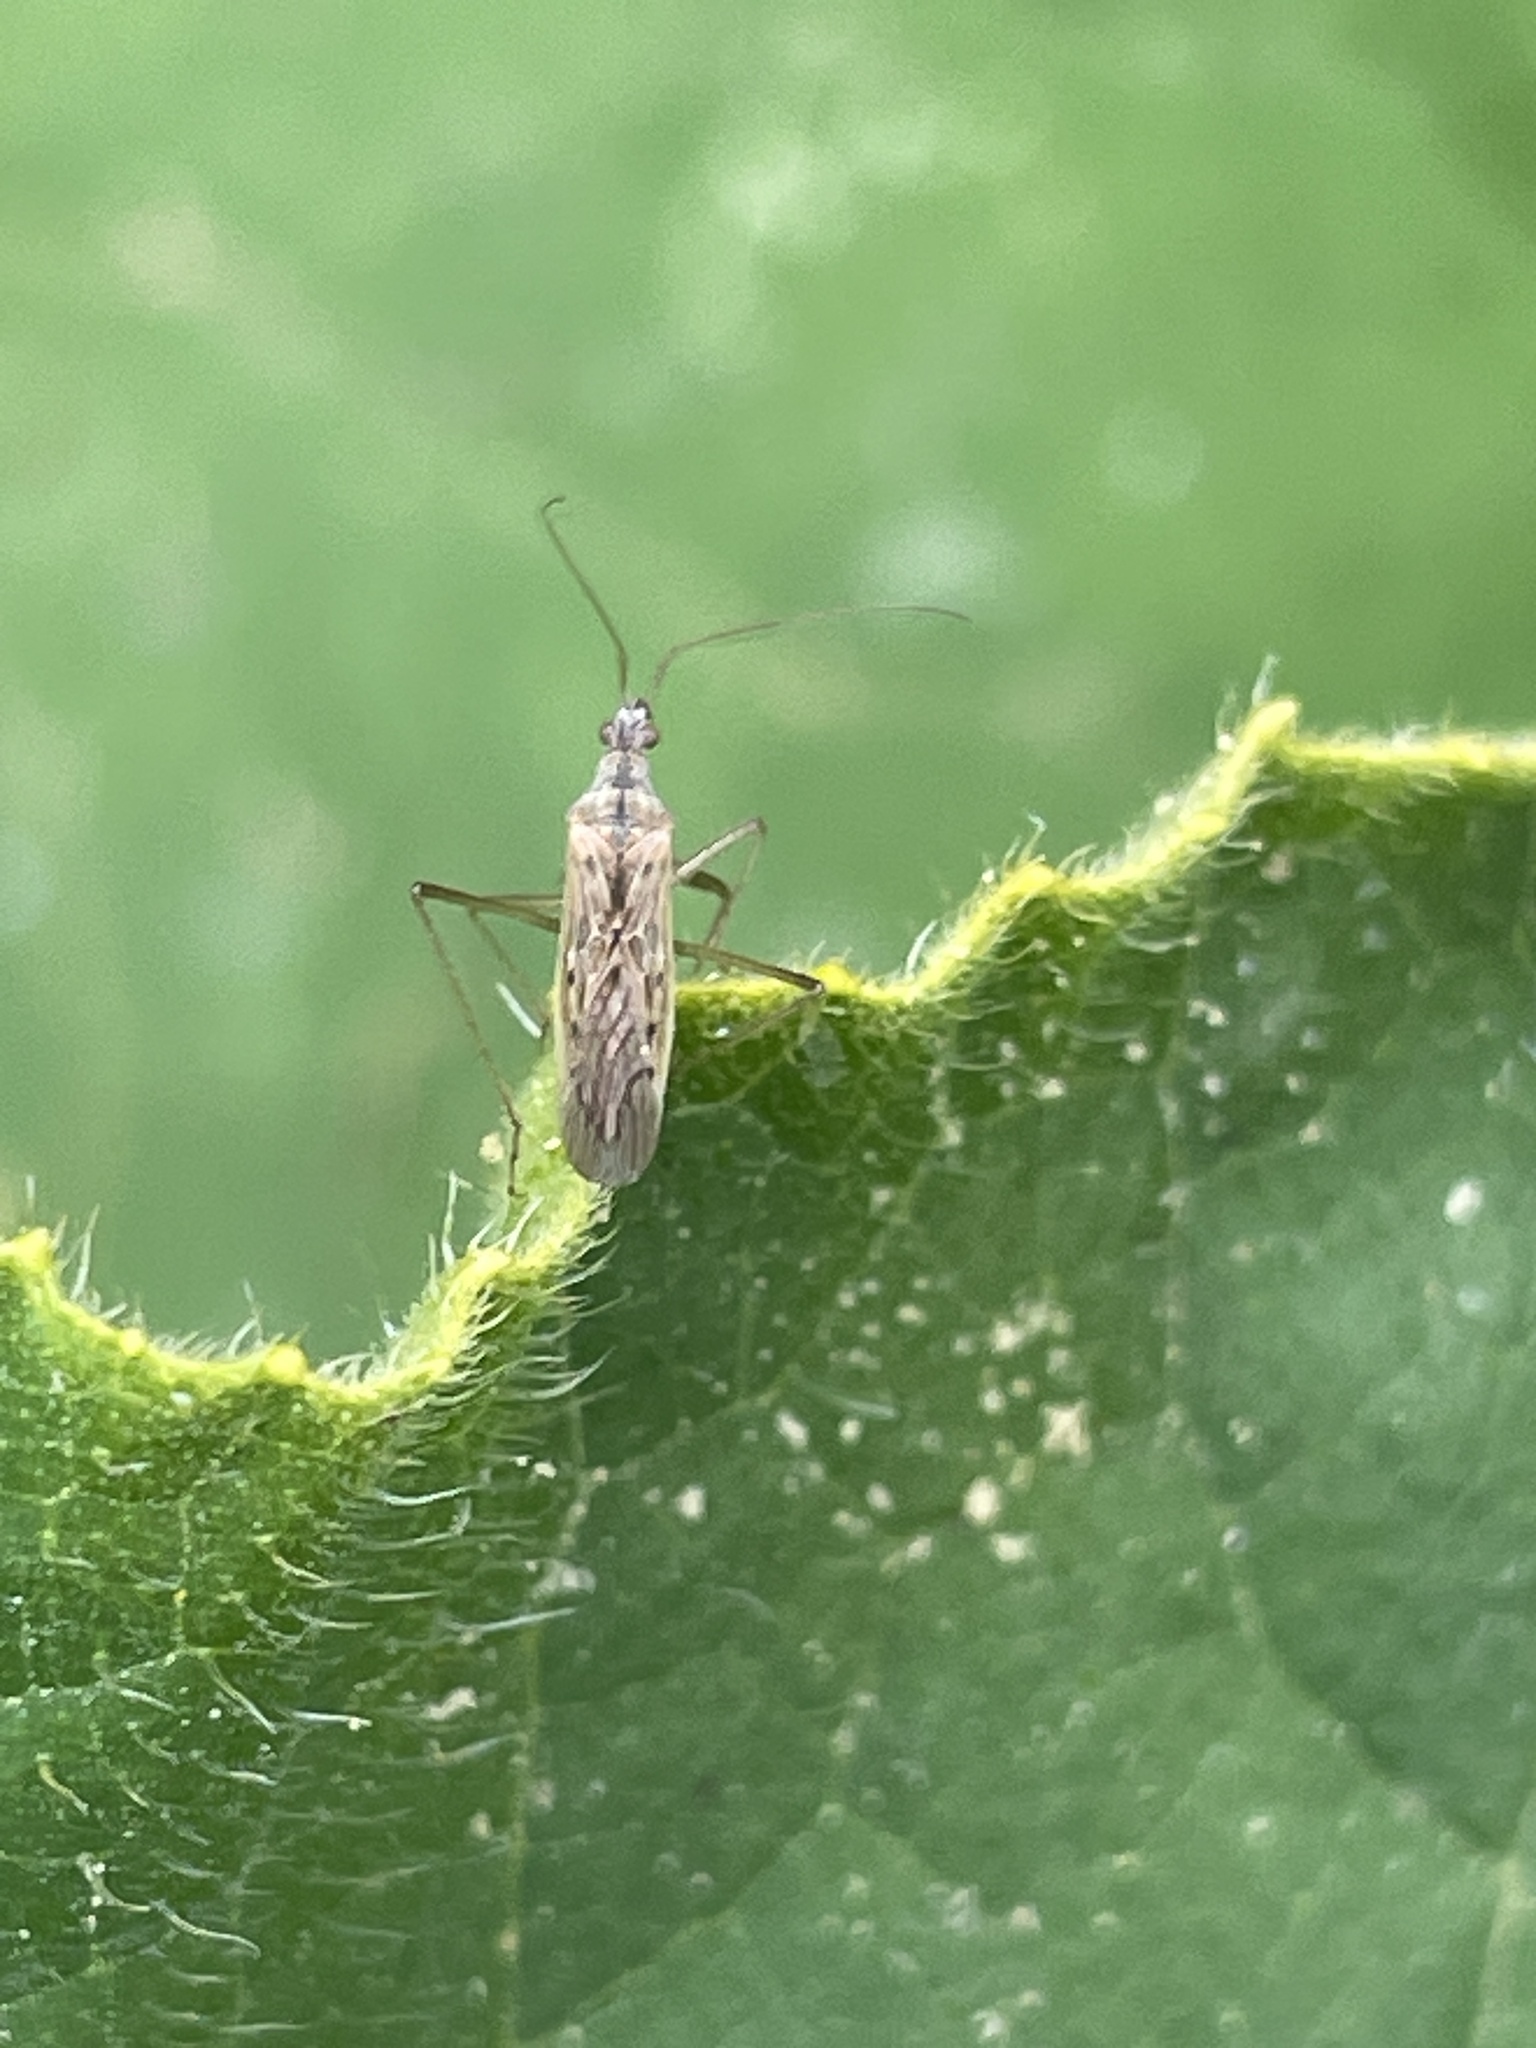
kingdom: Animalia
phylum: Arthropoda
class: Insecta
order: Hemiptera
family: Nabidae
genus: Nabis
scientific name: Nabis kinbergii
